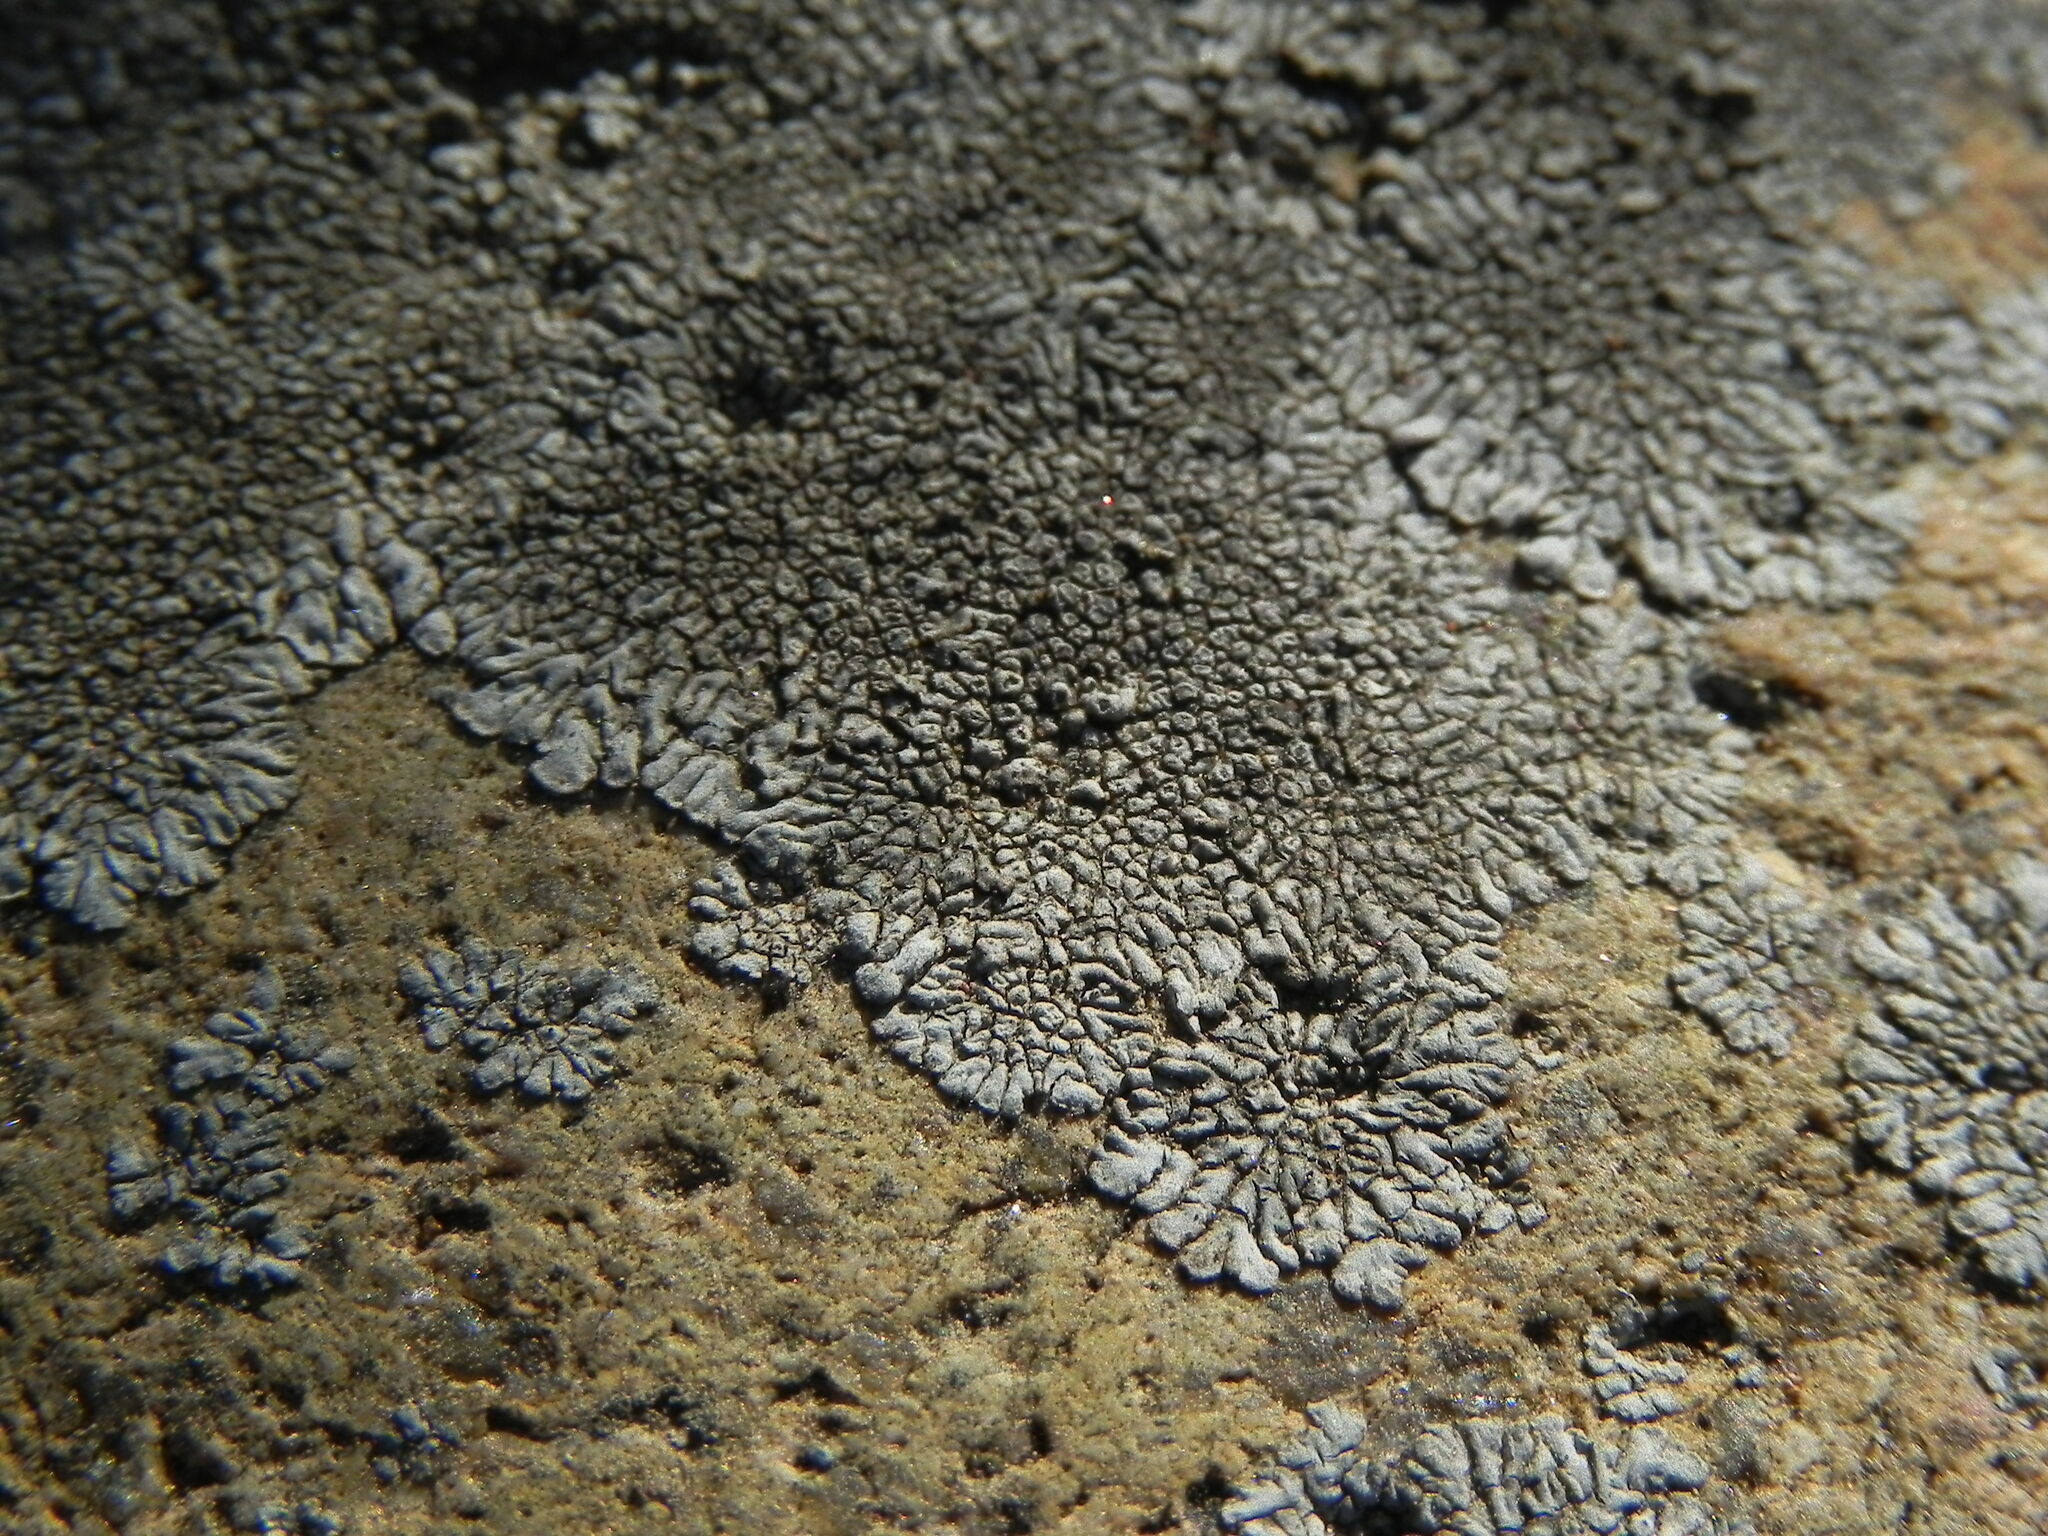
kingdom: Fungi
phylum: Ascomycota
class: Lecanoromycetes
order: Caliciales
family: Caliciaceae
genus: Dimelaena
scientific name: Dimelaena radiata
